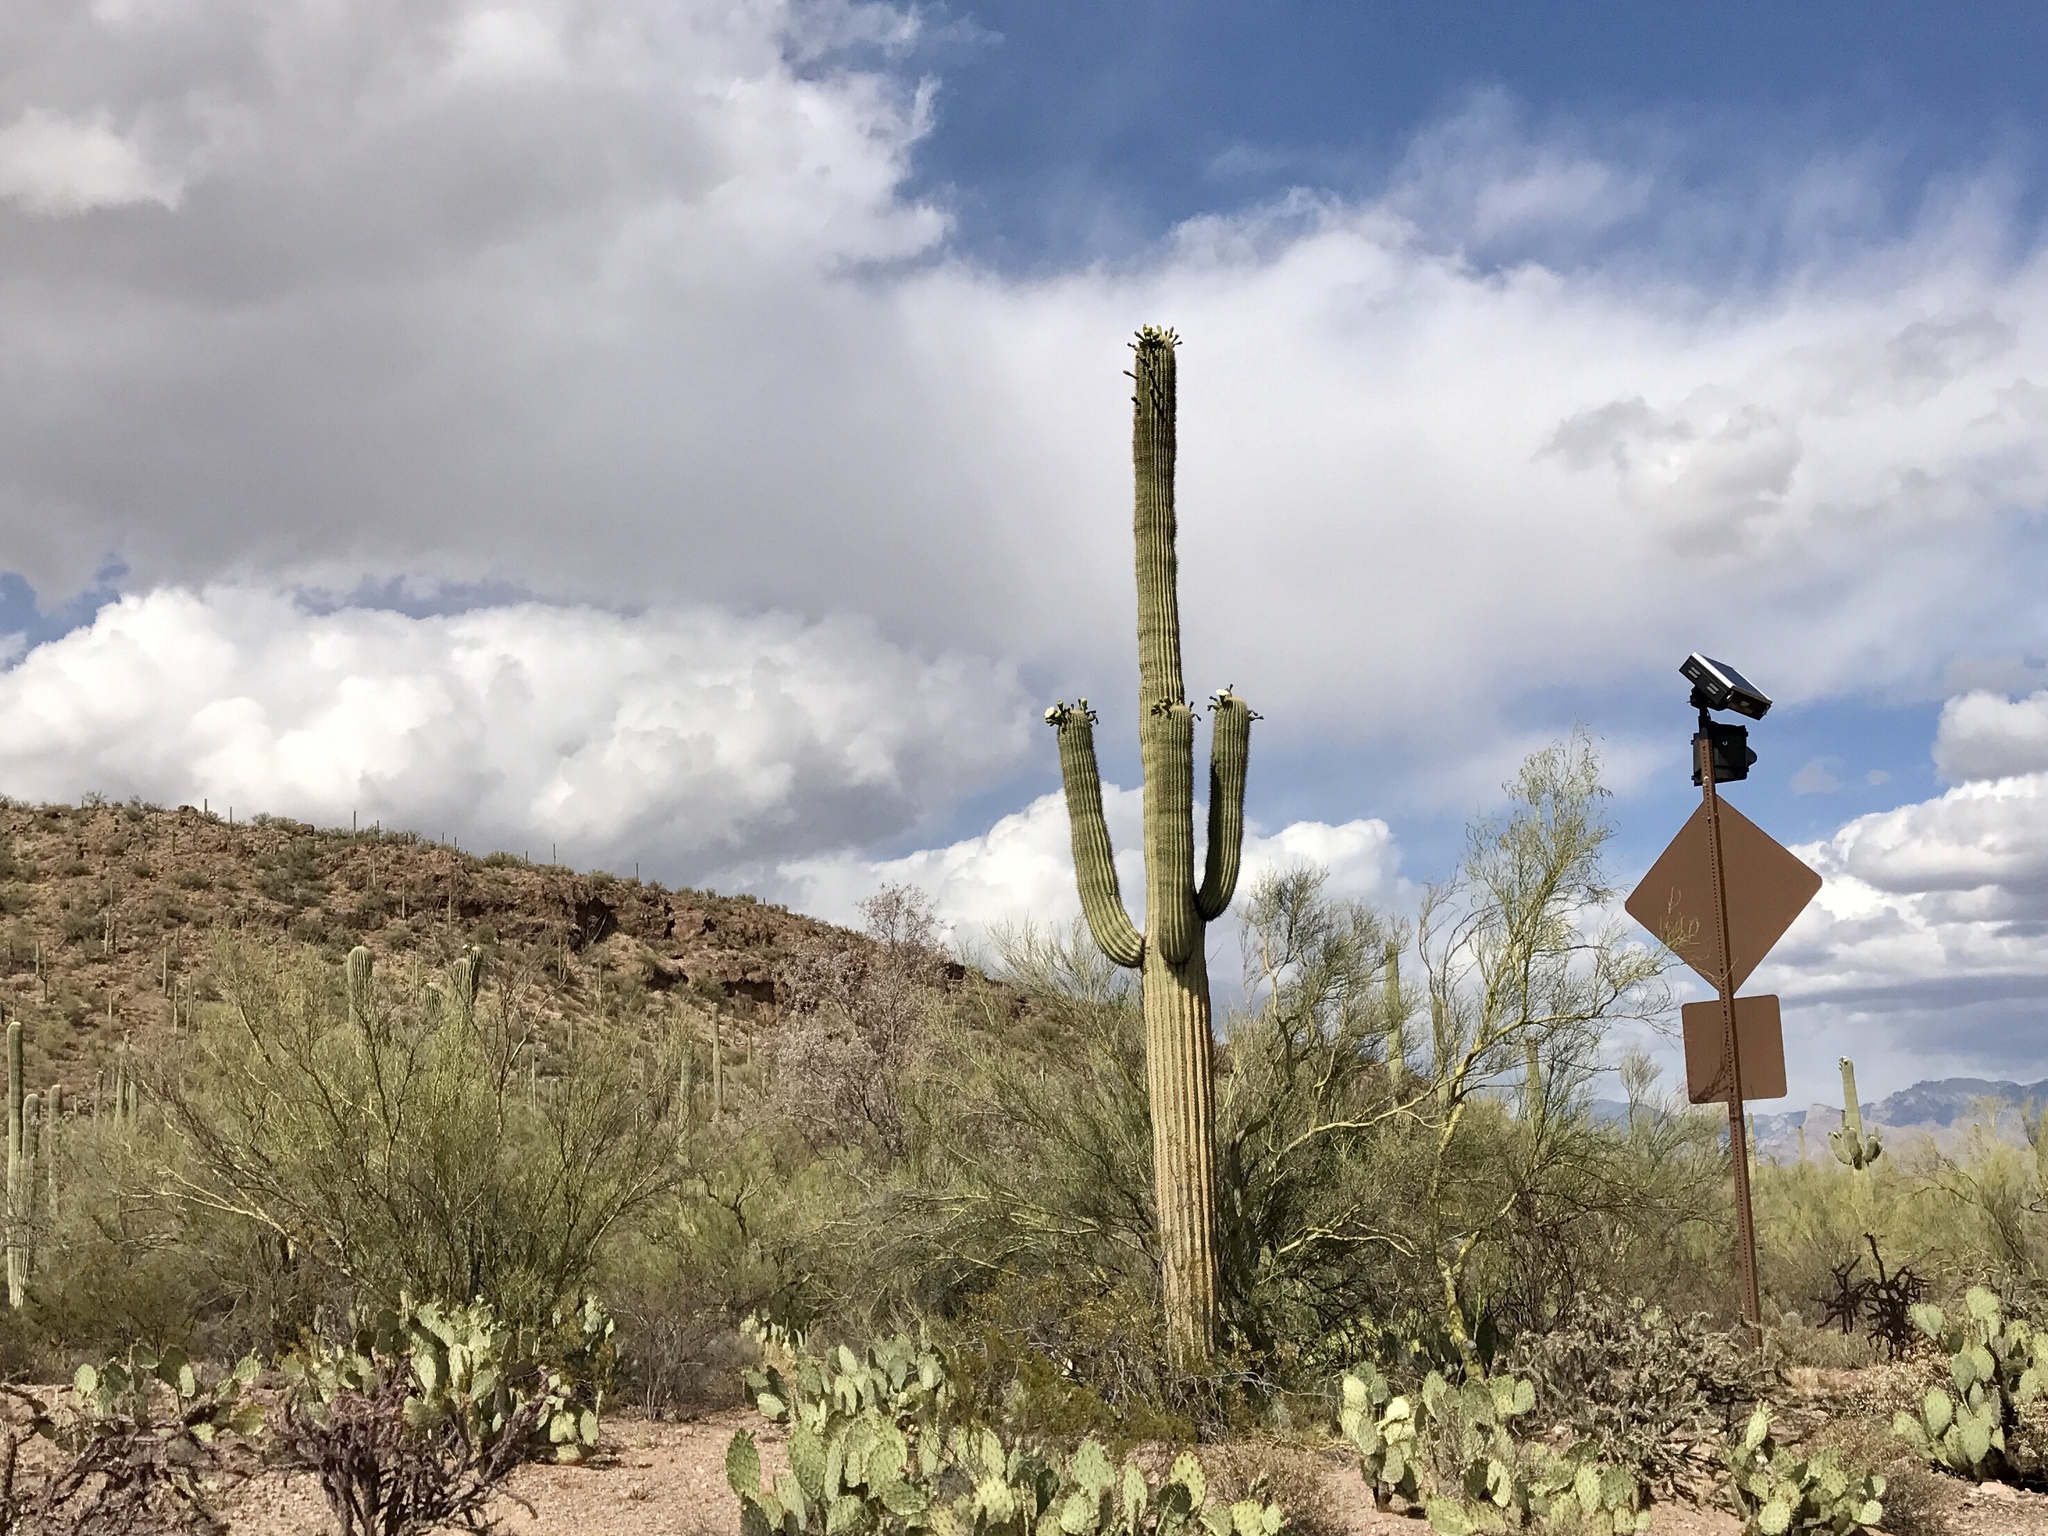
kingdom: Plantae
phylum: Tracheophyta
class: Magnoliopsida
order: Caryophyllales
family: Cactaceae
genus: Carnegiea
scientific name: Carnegiea gigantea
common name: Saguaro
